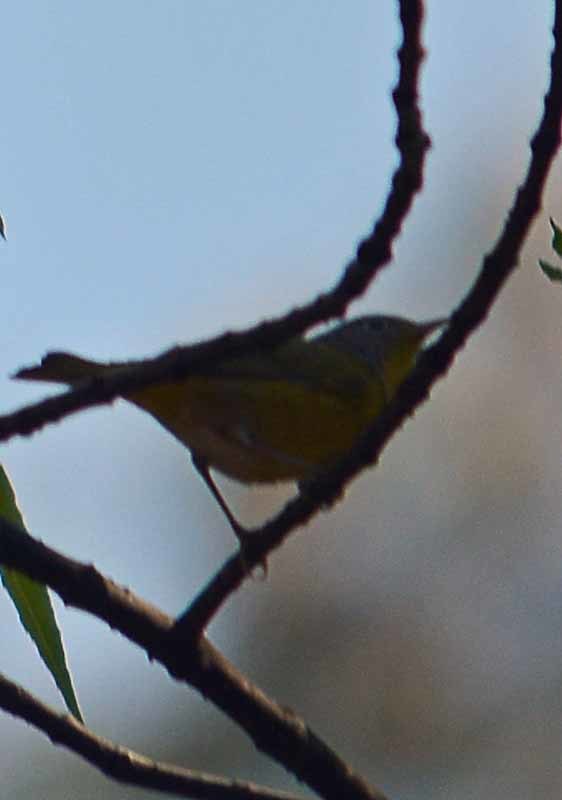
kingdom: Animalia
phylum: Chordata
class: Aves
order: Passeriformes
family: Parulidae
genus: Leiothlypis
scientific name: Leiothlypis ruficapilla
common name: Nashville warbler
